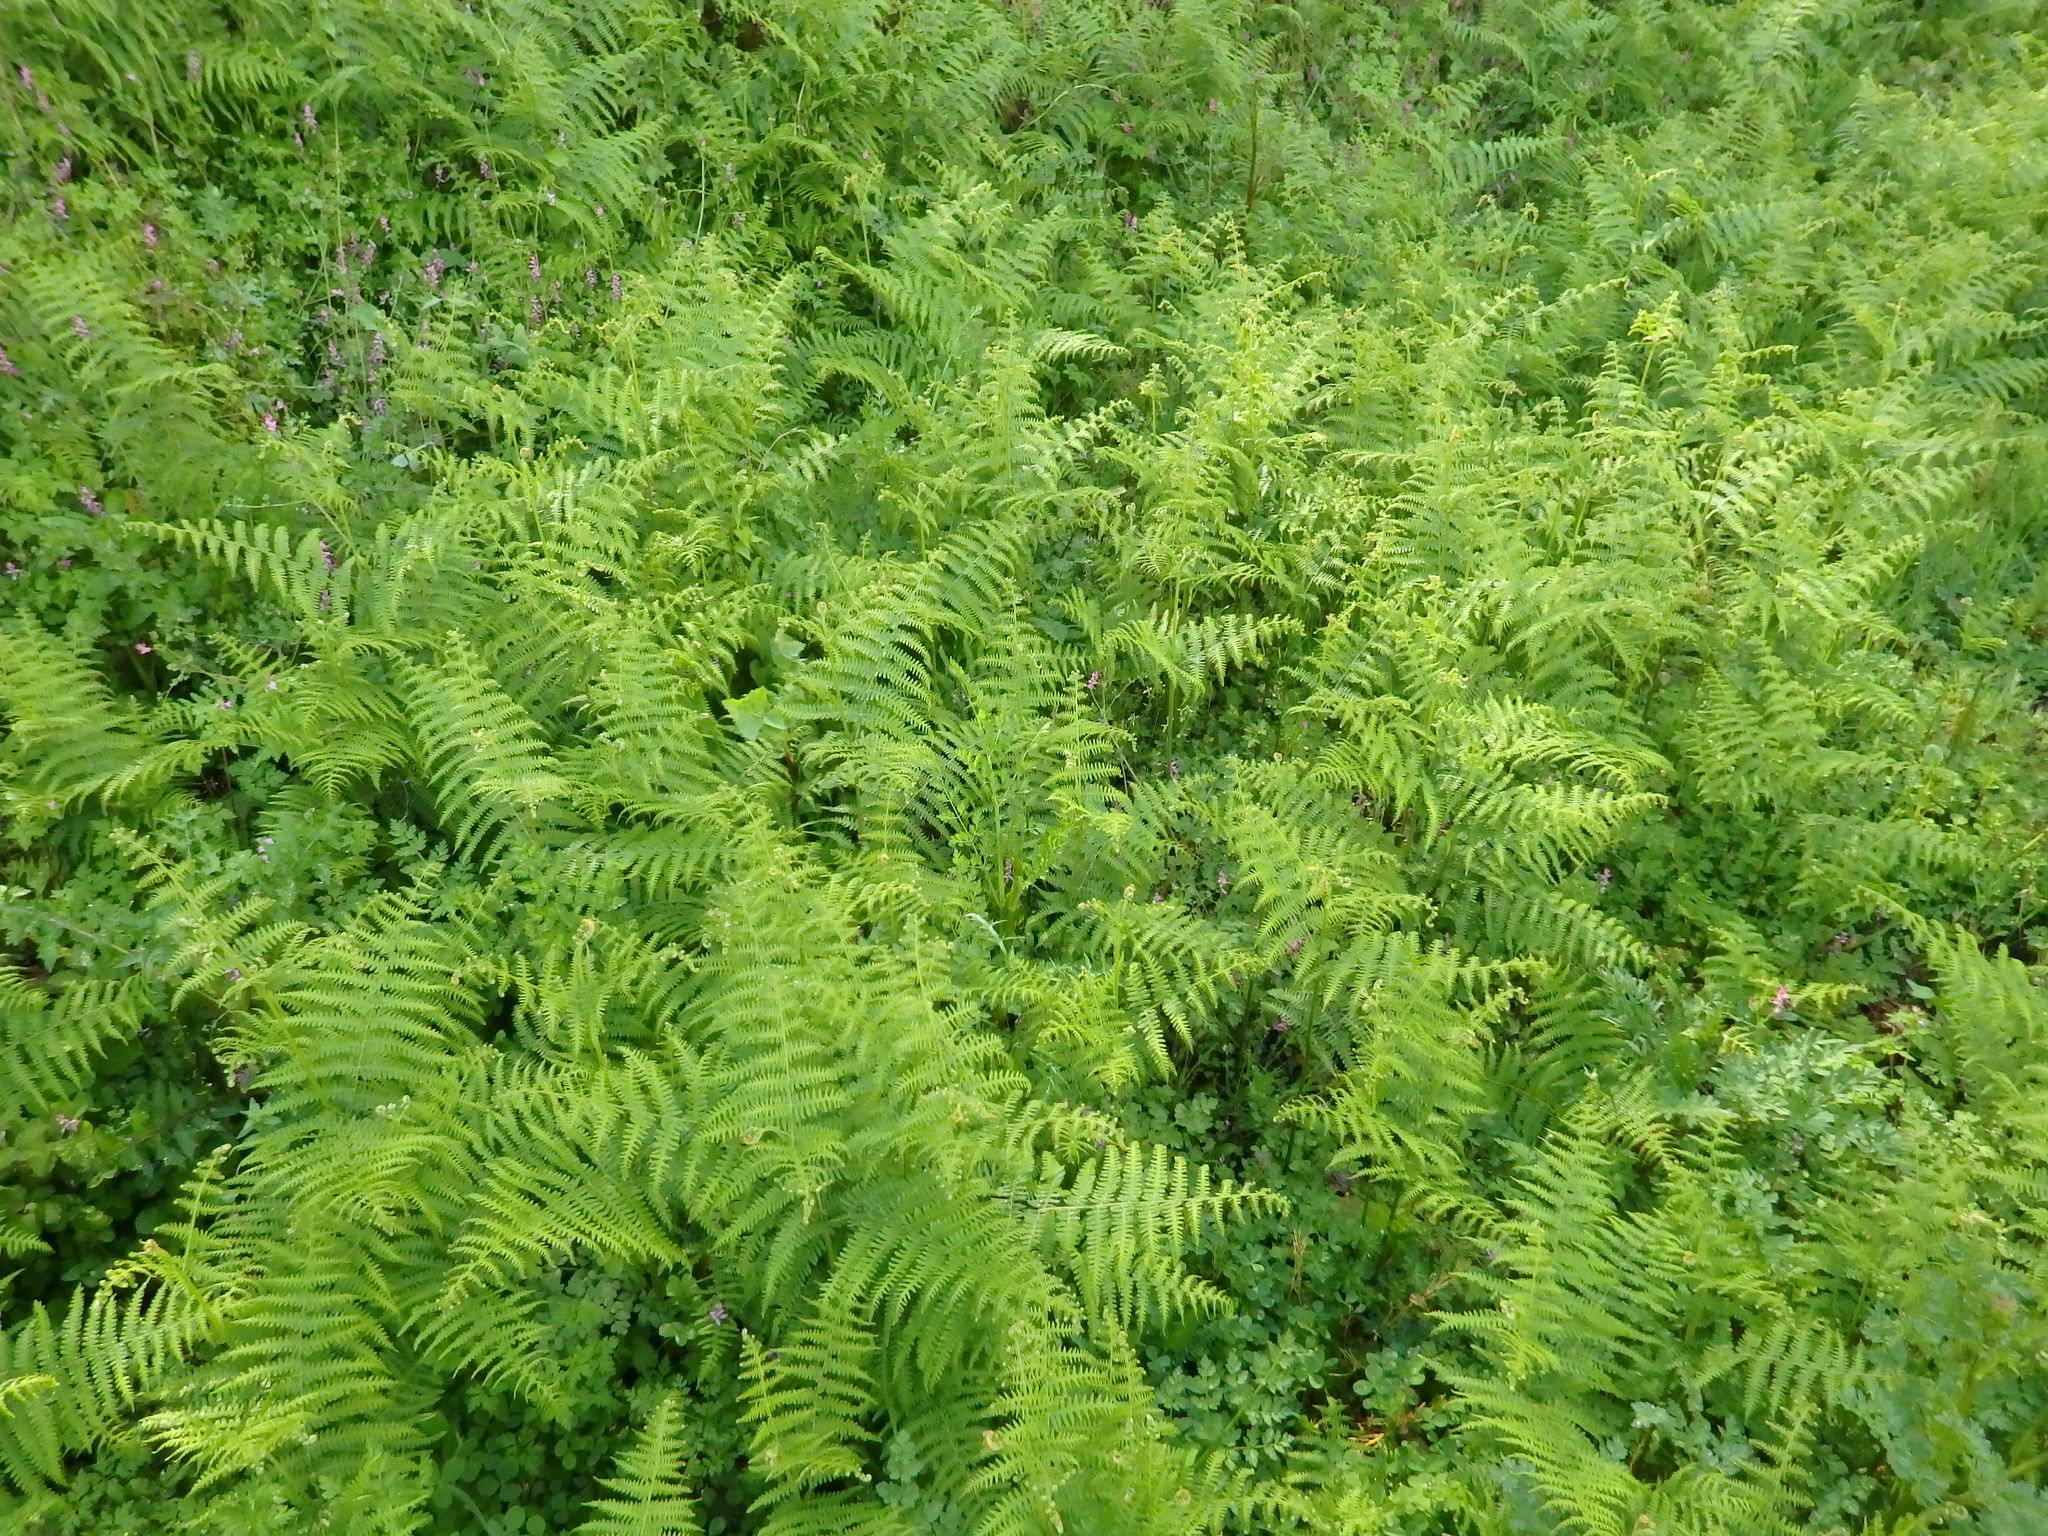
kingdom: Plantae
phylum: Tracheophyta
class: Polypodiopsida
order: Polypodiales
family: Dennstaedtiaceae
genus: Pteridium
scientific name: Pteridium aquilinum
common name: Bracken
